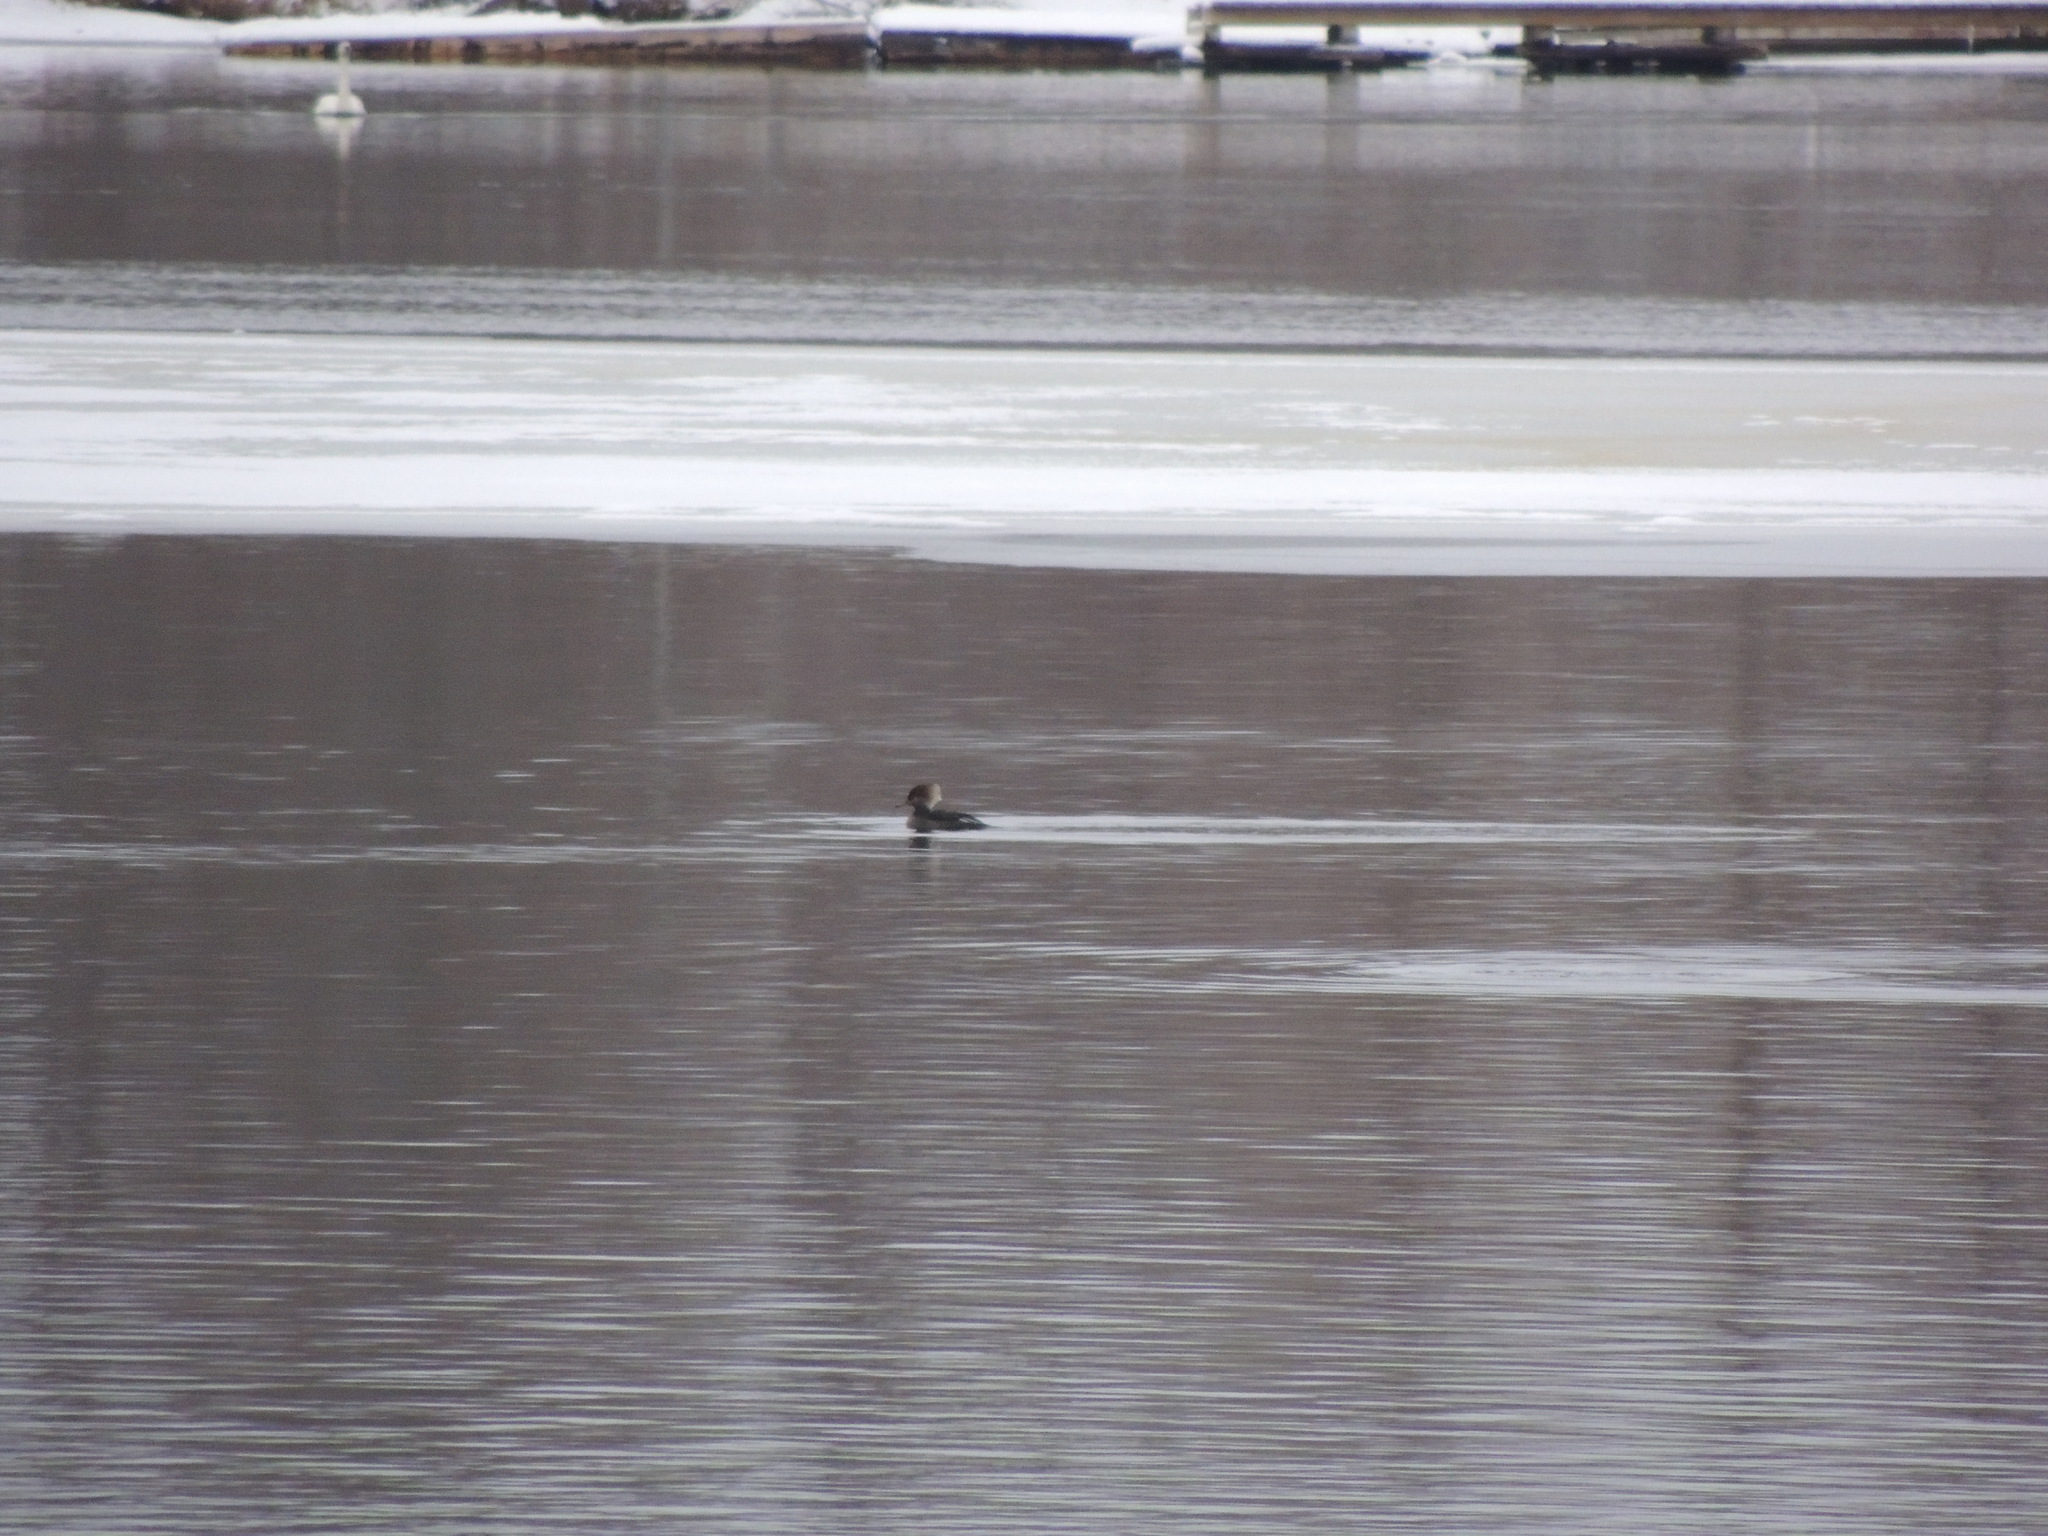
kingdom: Animalia
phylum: Chordata
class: Aves
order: Anseriformes
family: Anatidae
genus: Lophodytes
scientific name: Lophodytes cucullatus
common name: Hooded merganser
